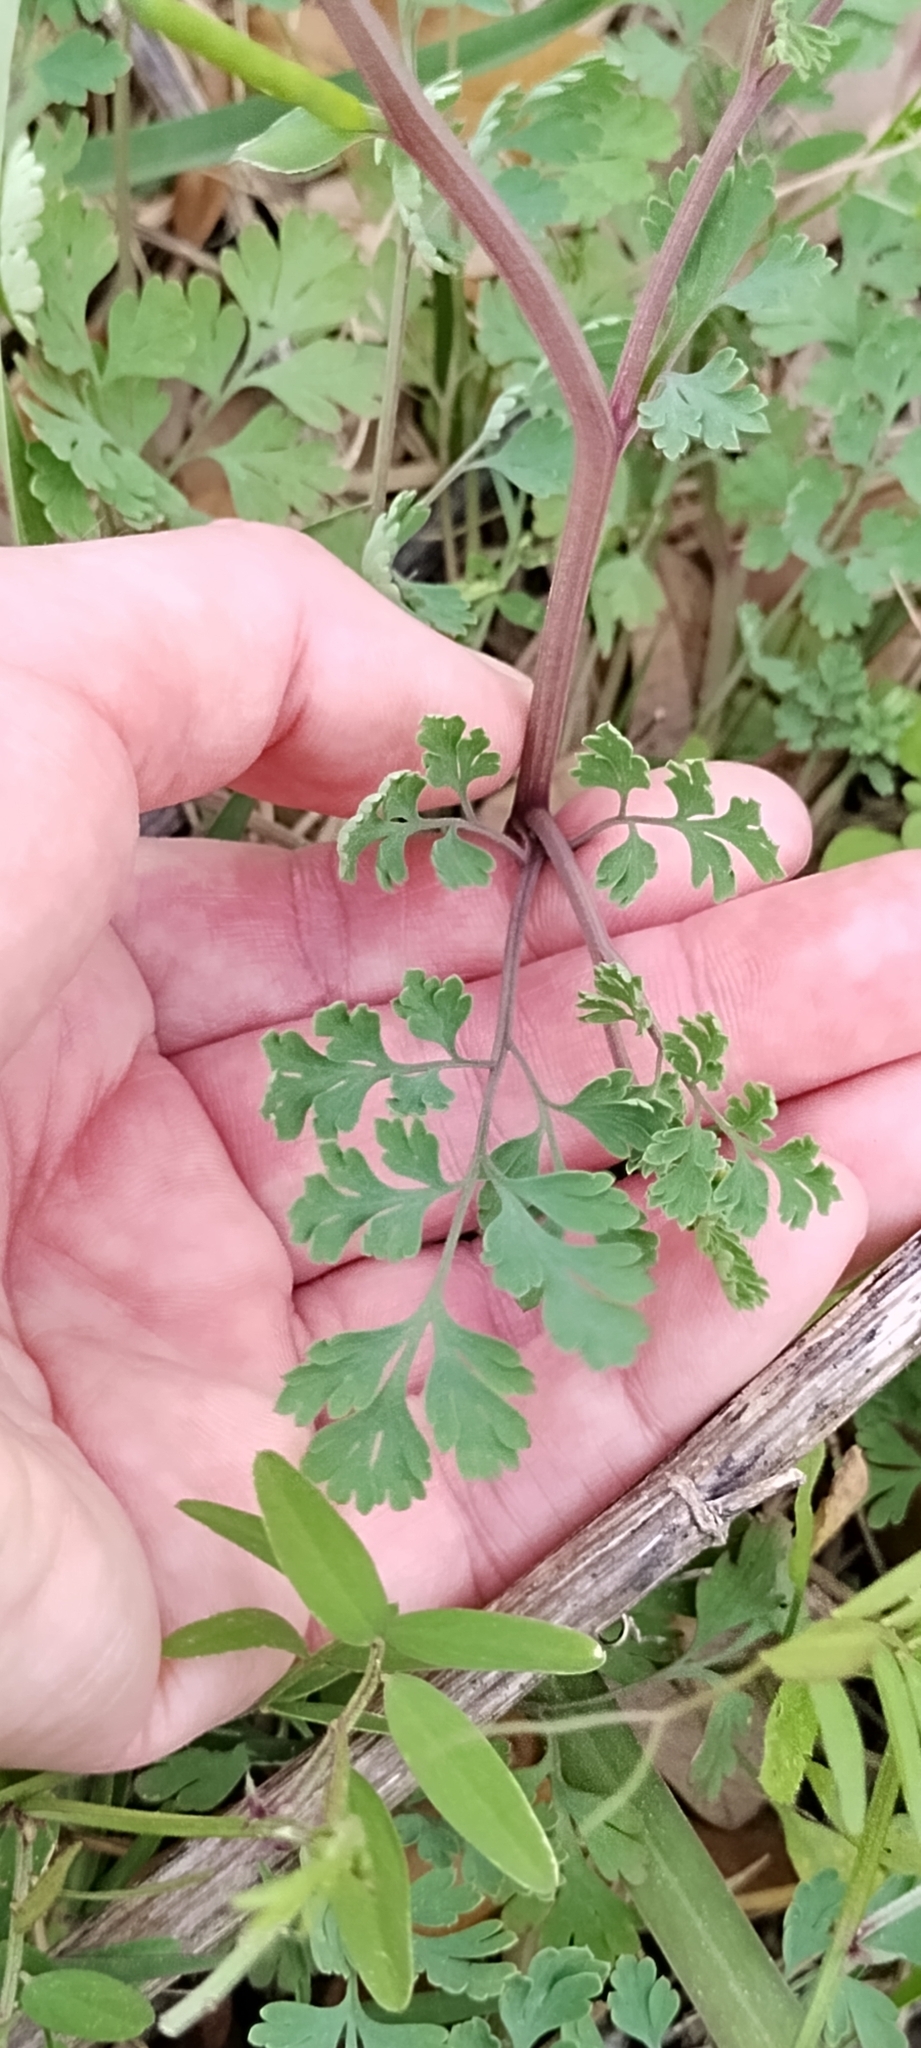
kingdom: Plantae
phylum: Tracheophyta
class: Magnoliopsida
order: Ranunculales
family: Papaveraceae
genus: Corydalis
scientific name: Corydalis micrantha
